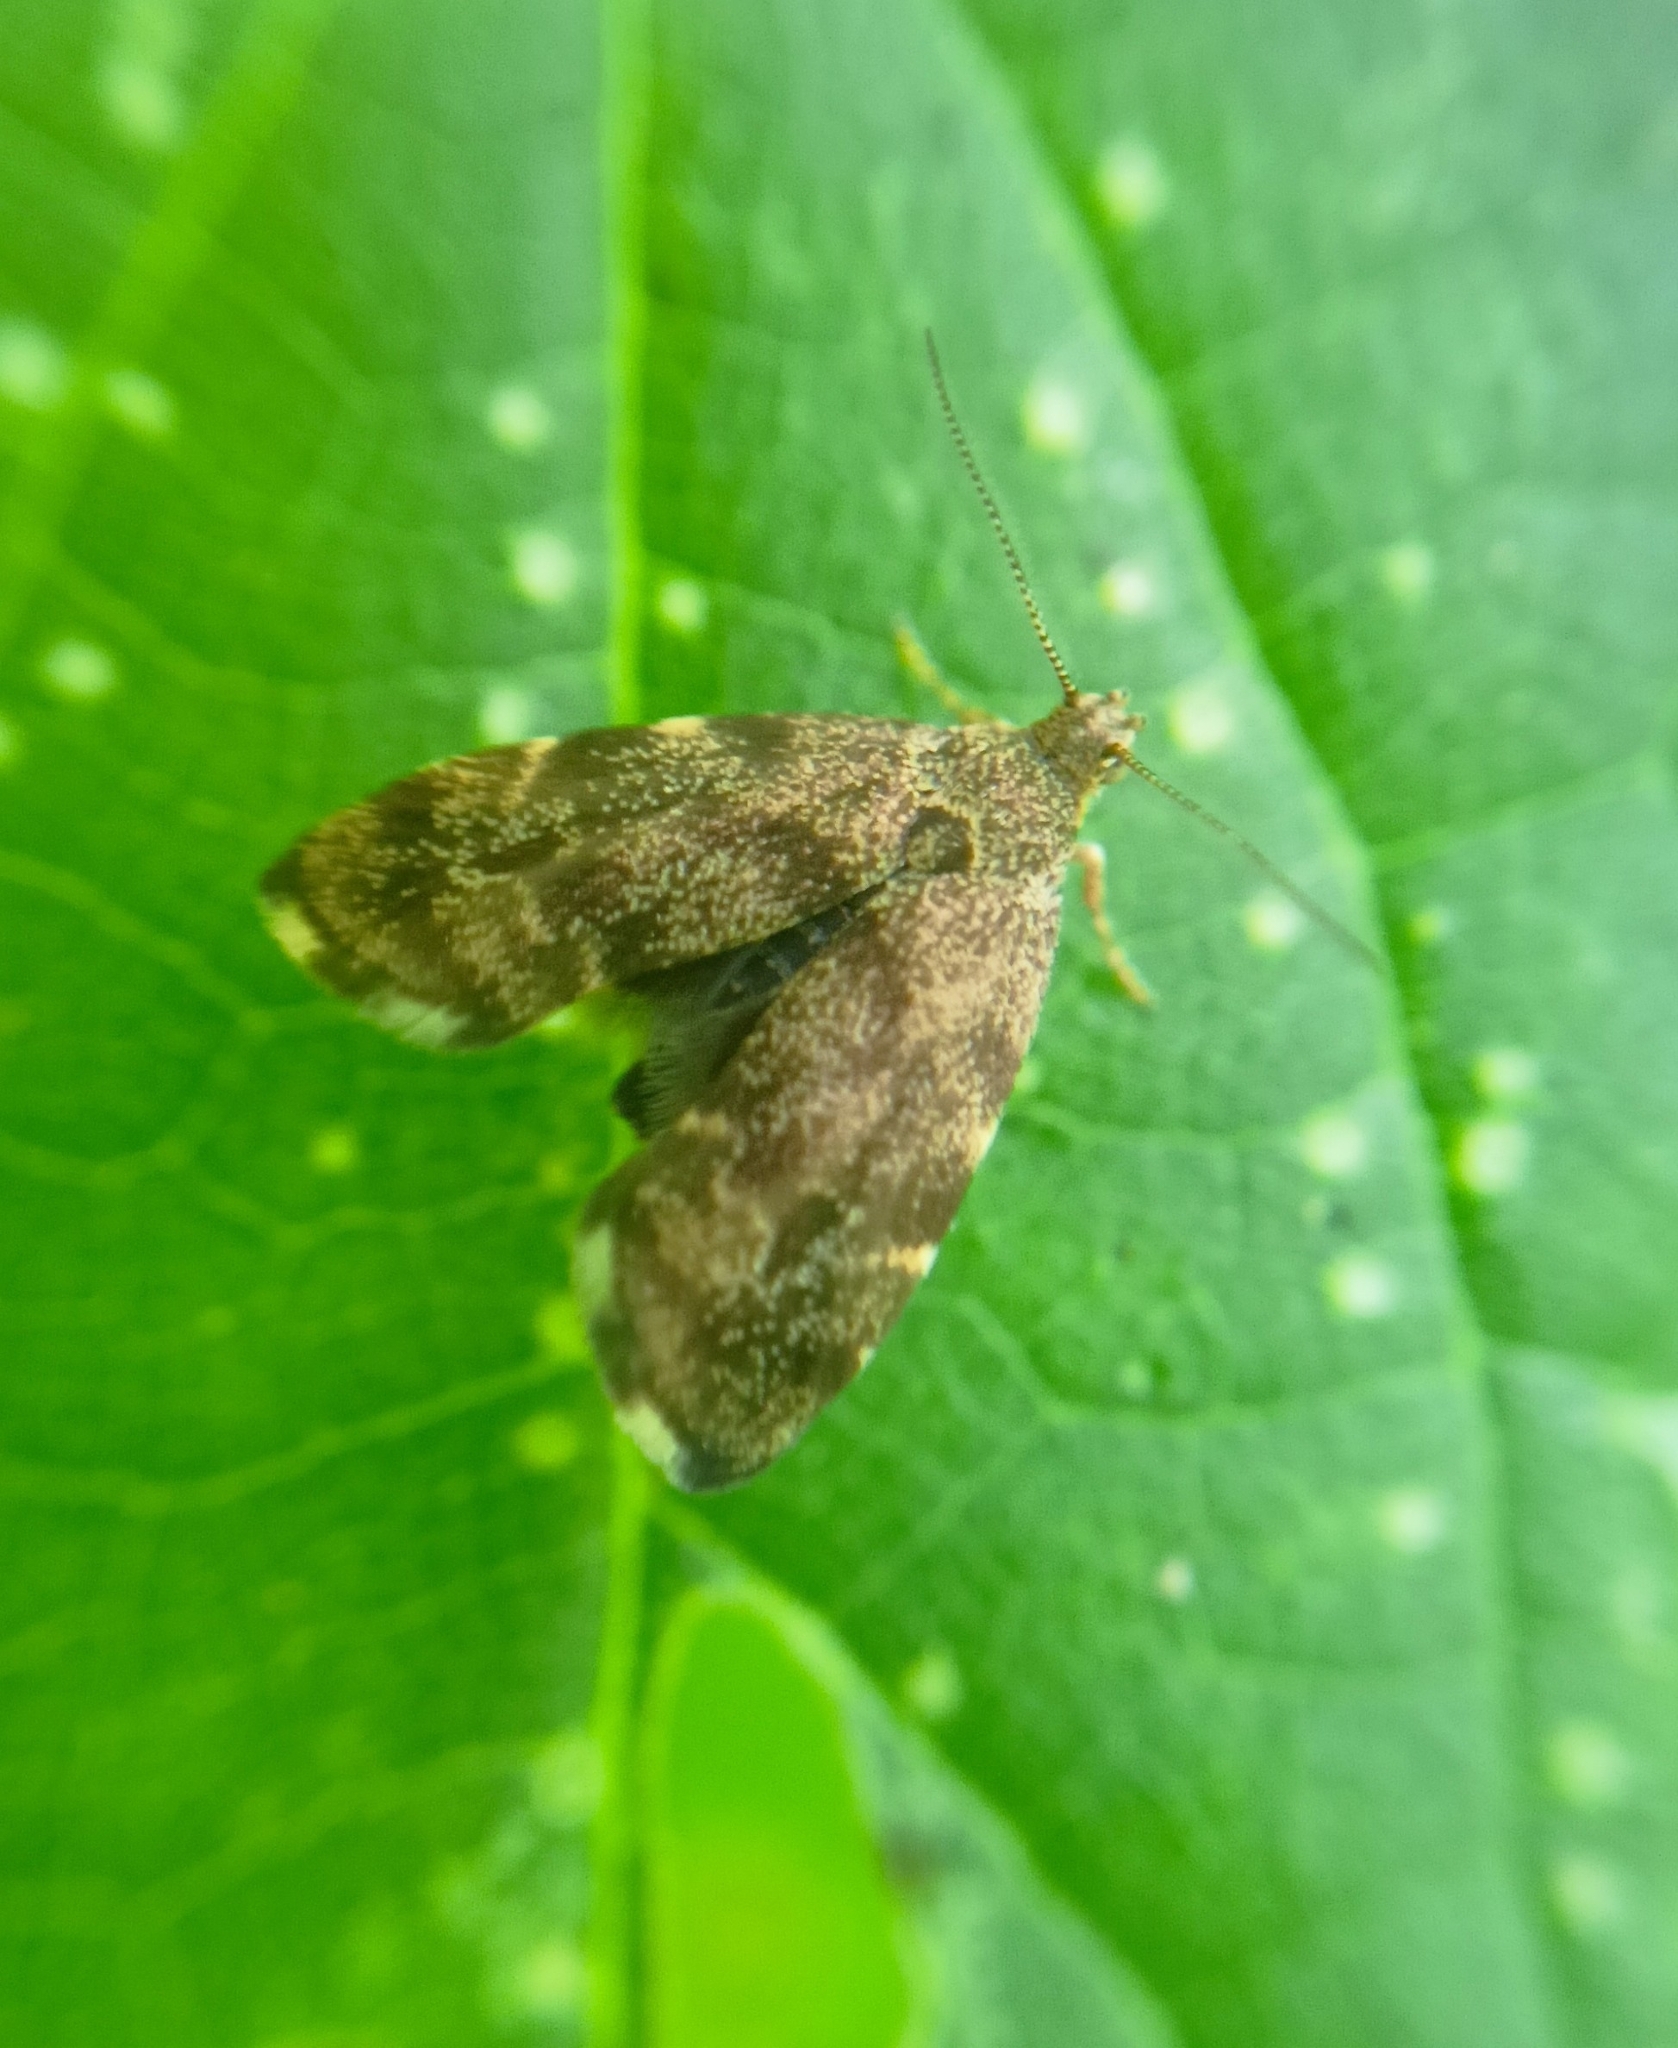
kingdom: Animalia
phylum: Arthropoda
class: Insecta
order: Lepidoptera
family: Choreutidae
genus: Anthophila
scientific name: Anthophila fabriciana
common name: Nettle-tap
